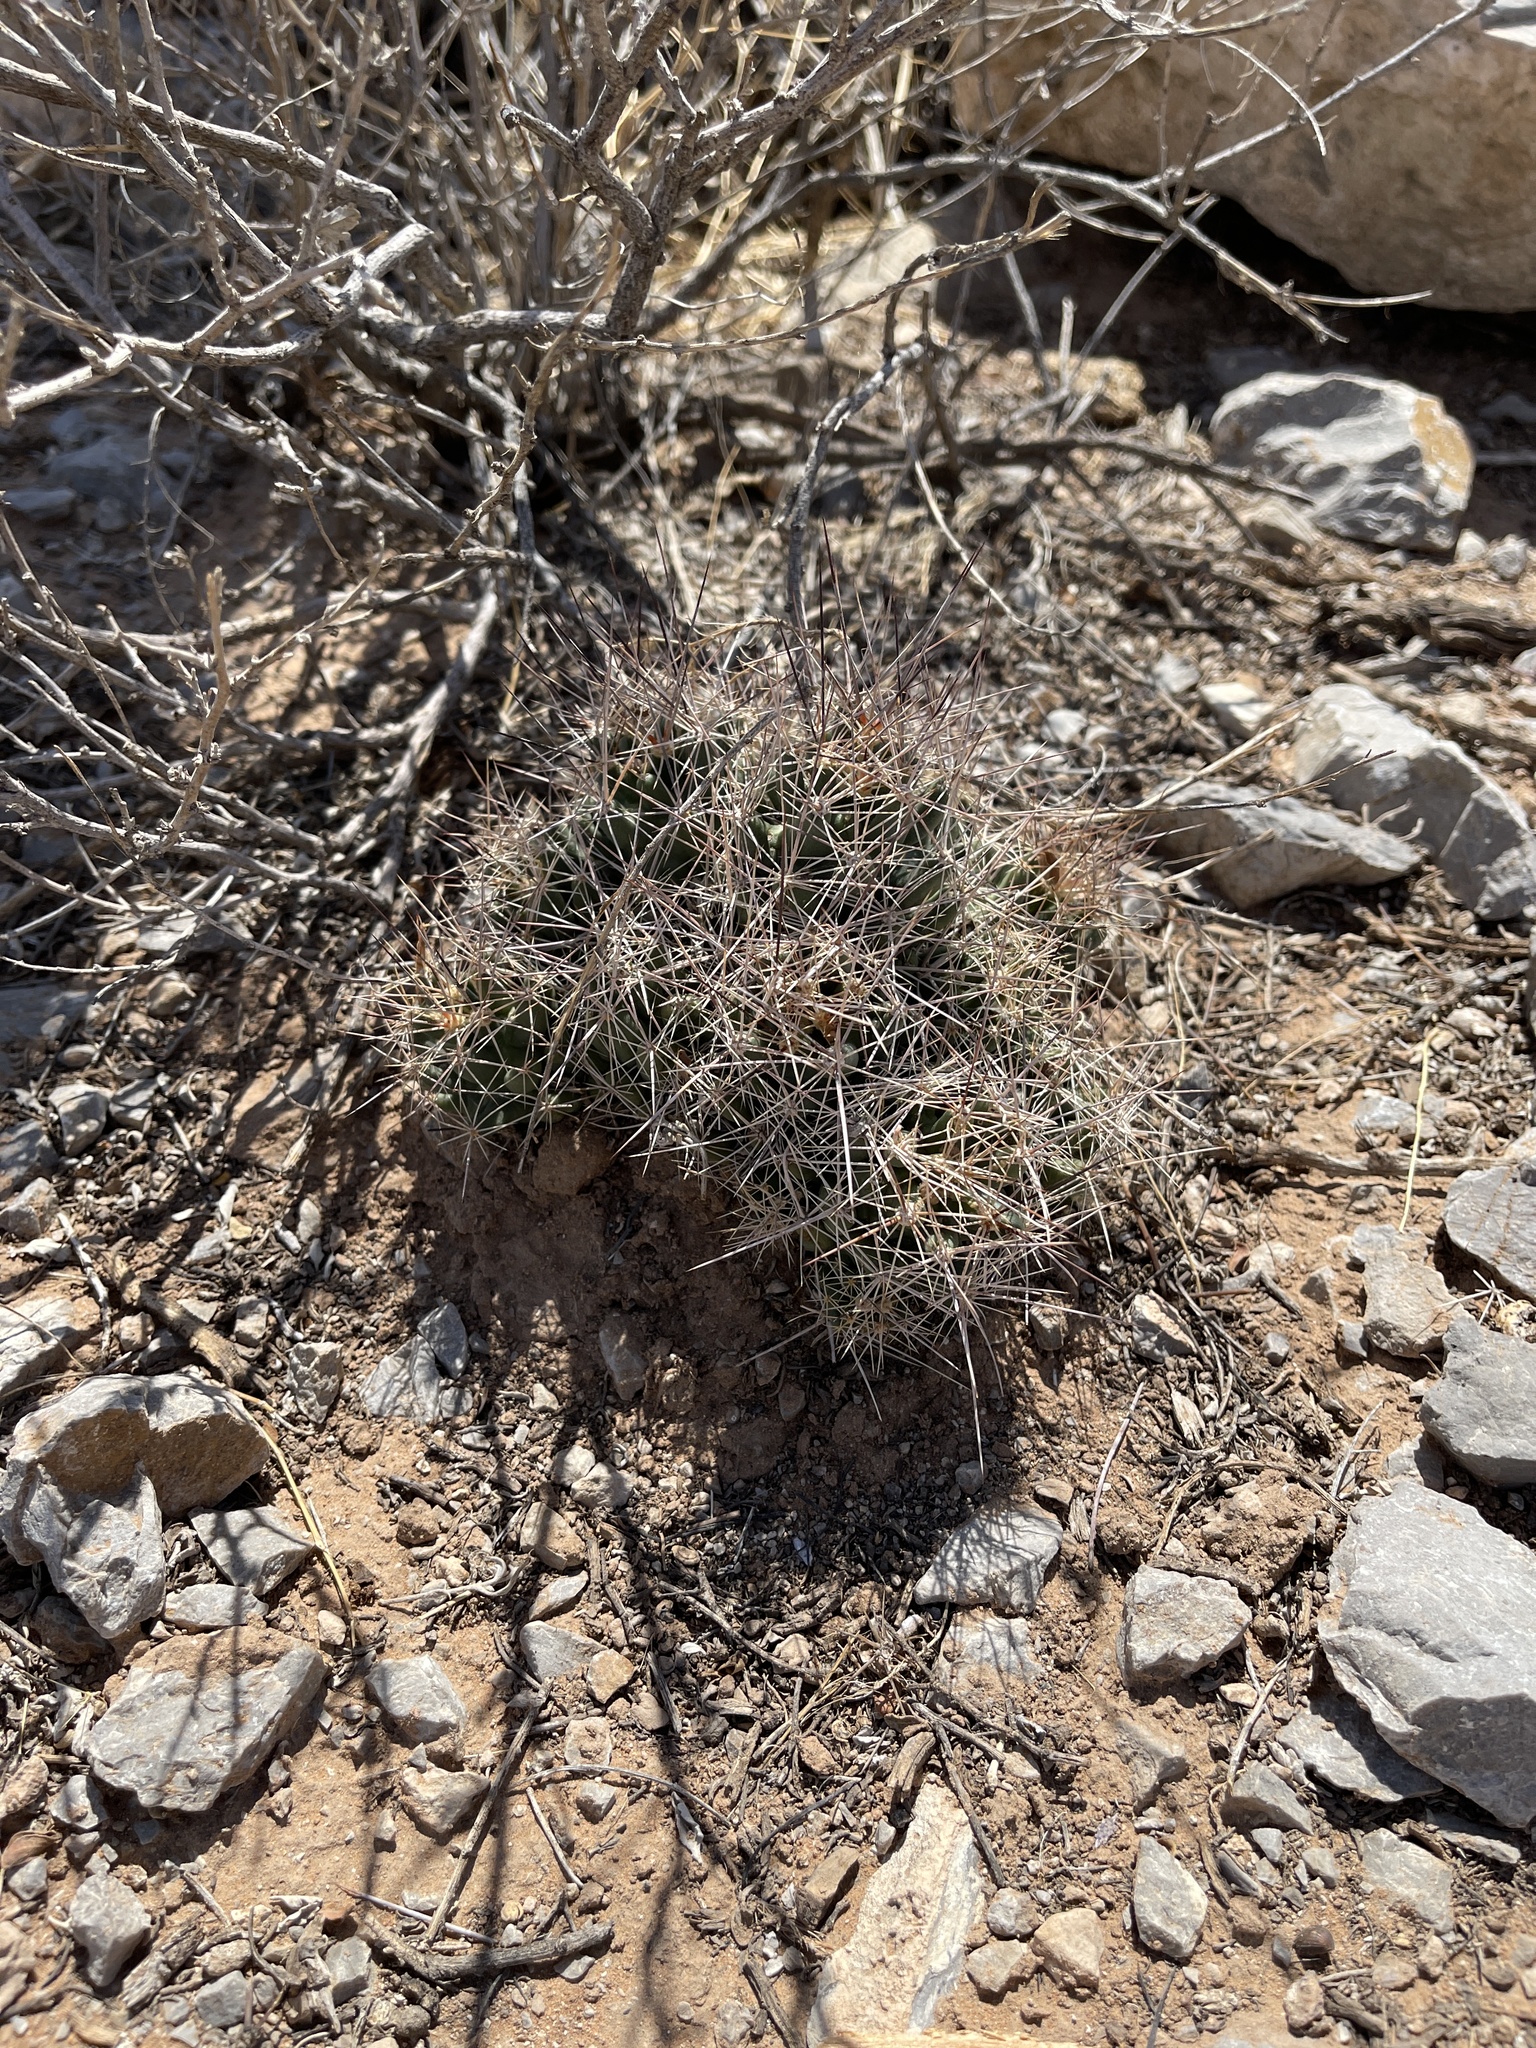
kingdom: Plantae
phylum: Tracheophyta
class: Magnoliopsida
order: Caryophyllales
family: Cactaceae
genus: Coryphantha
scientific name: Coryphantha macromeris
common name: Nipple beehive cactus
